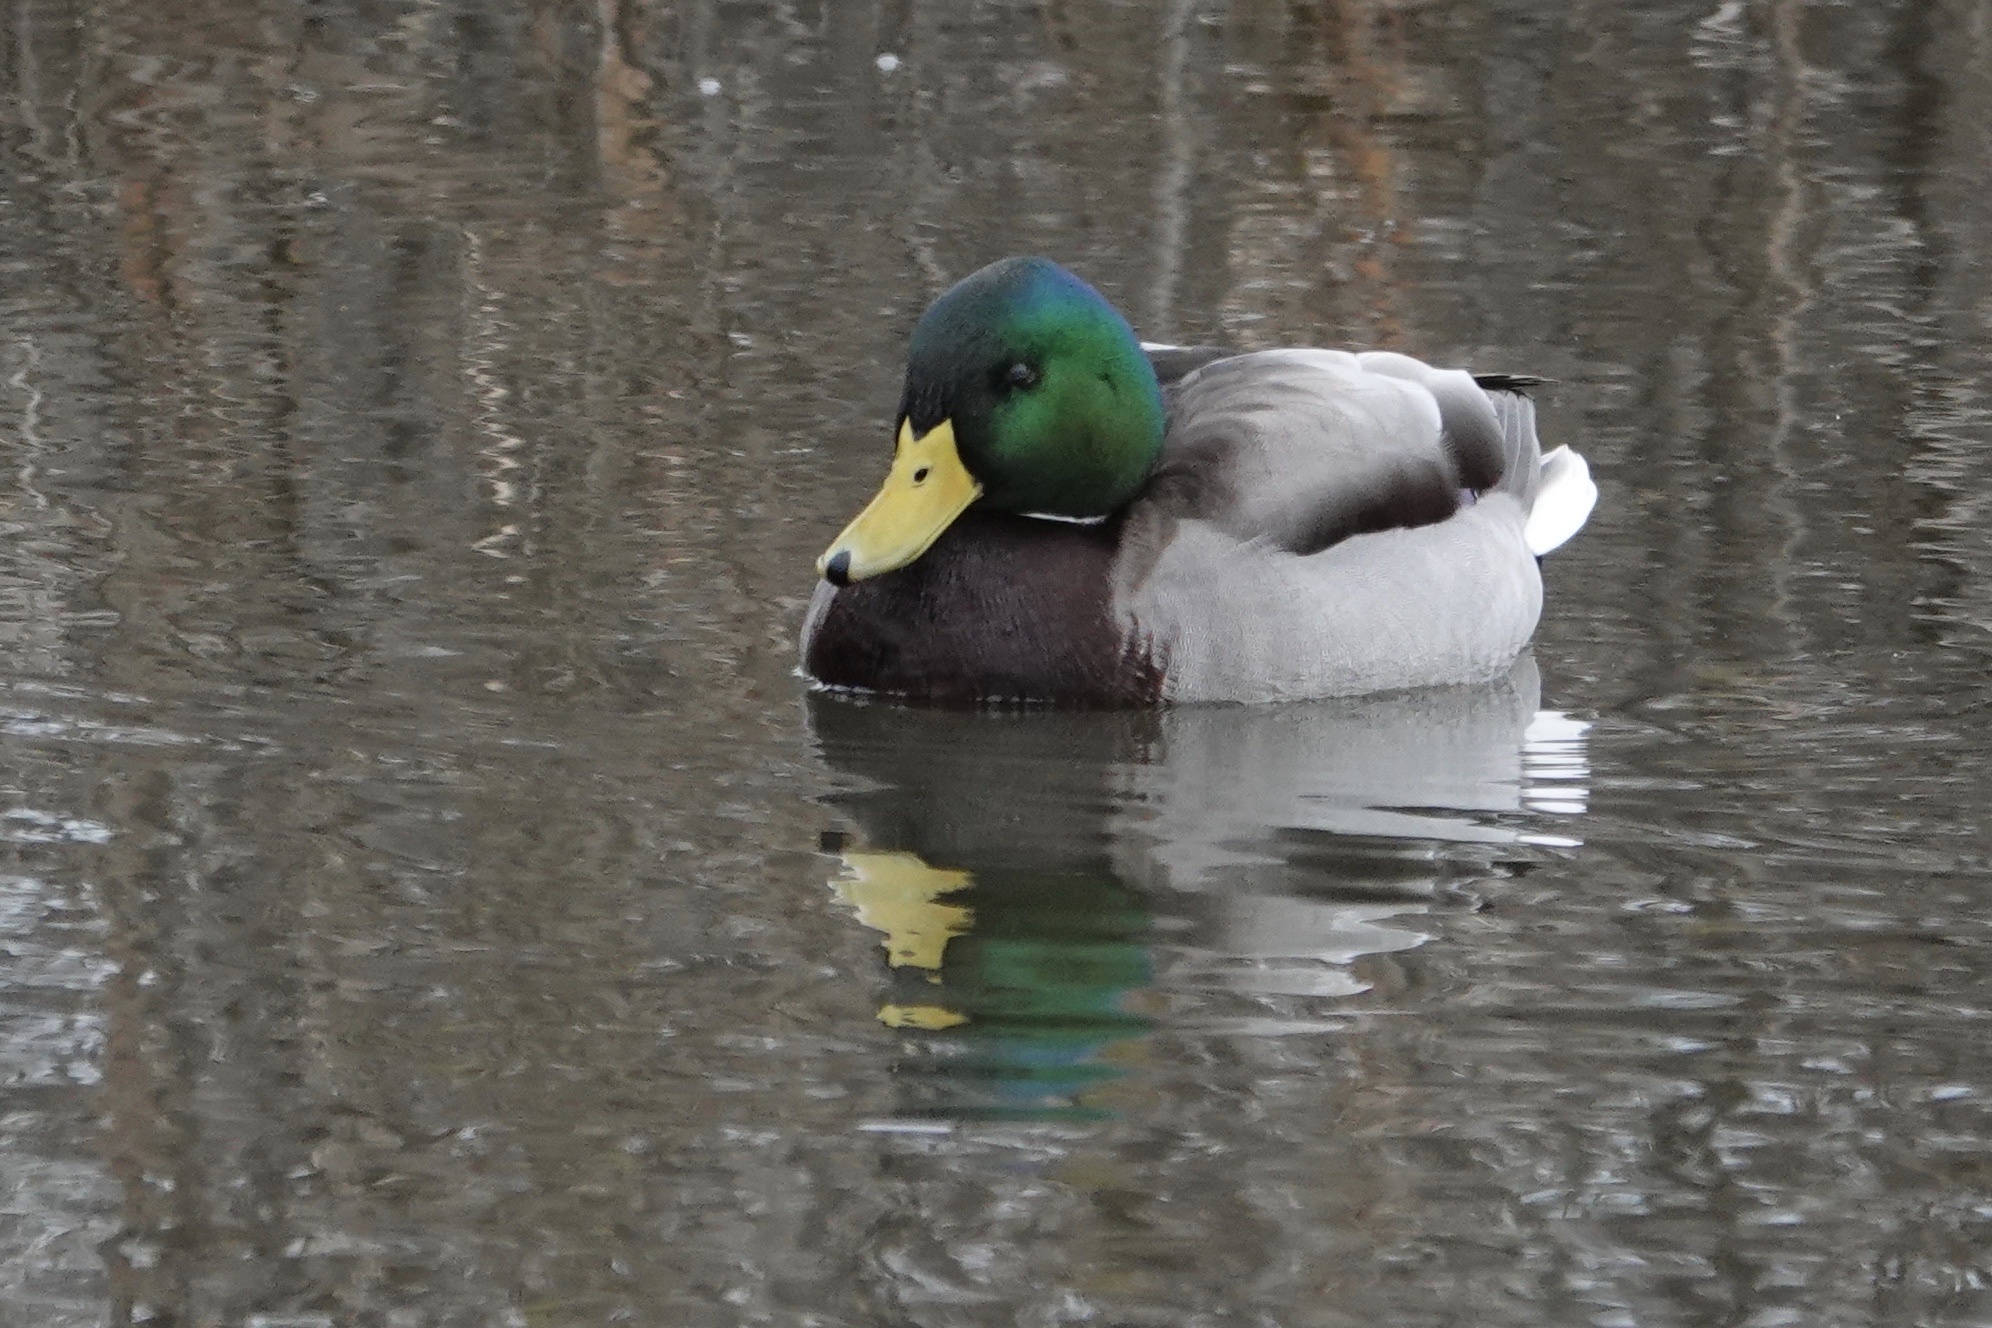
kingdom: Animalia
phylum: Chordata
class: Aves
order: Anseriformes
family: Anatidae
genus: Anas
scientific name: Anas platyrhynchos
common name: Mallard
